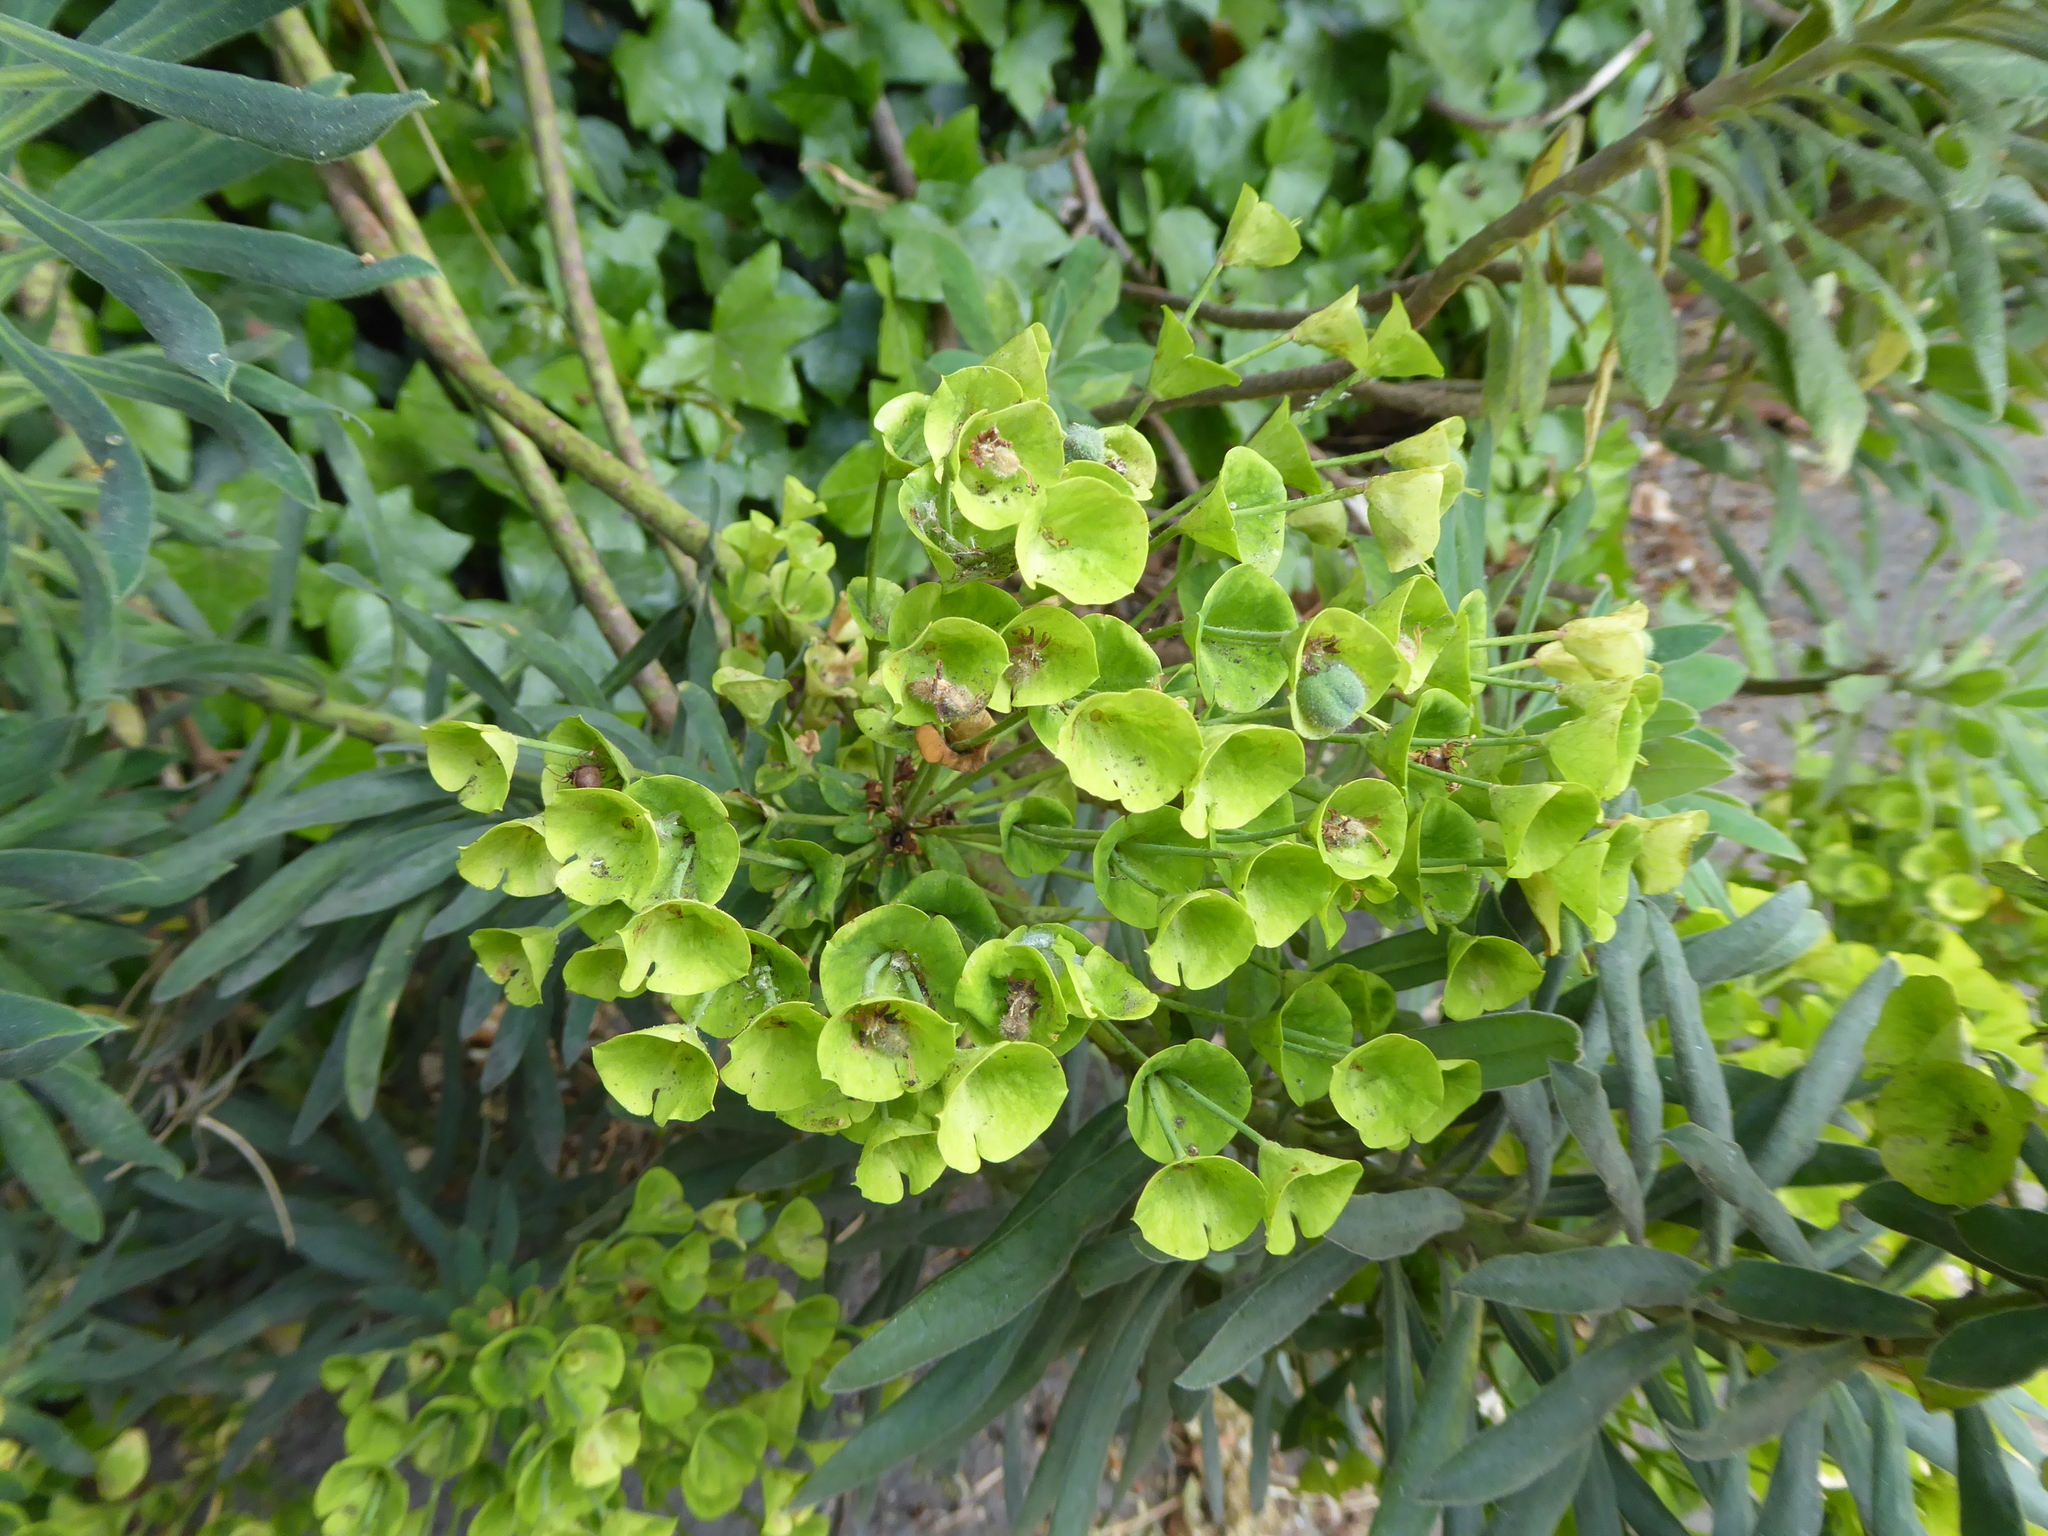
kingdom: Plantae
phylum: Tracheophyta
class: Magnoliopsida
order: Malpighiales
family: Euphorbiaceae
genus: Euphorbia
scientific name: Euphorbia characias
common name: Mediterranean spurge
